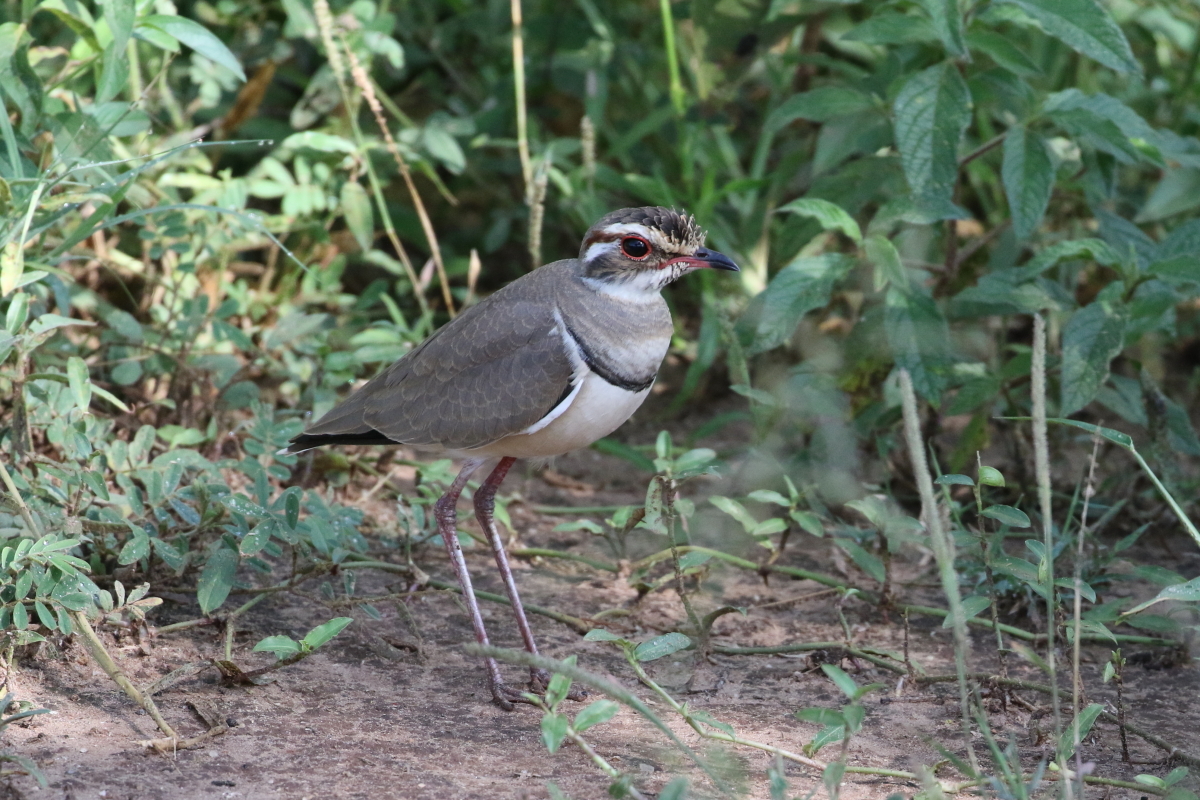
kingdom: Animalia
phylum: Chordata
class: Aves
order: Charadriiformes
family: Glareolidae
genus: Rhinoptilus
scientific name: Rhinoptilus chalcopterus
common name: Bronze-winged courser
